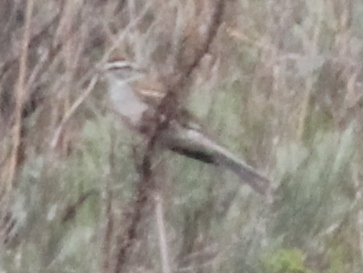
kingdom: Animalia
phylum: Chordata
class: Aves
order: Passeriformes
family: Passerellidae
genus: Spizella
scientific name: Spizella passerina
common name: Chipping sparrow
